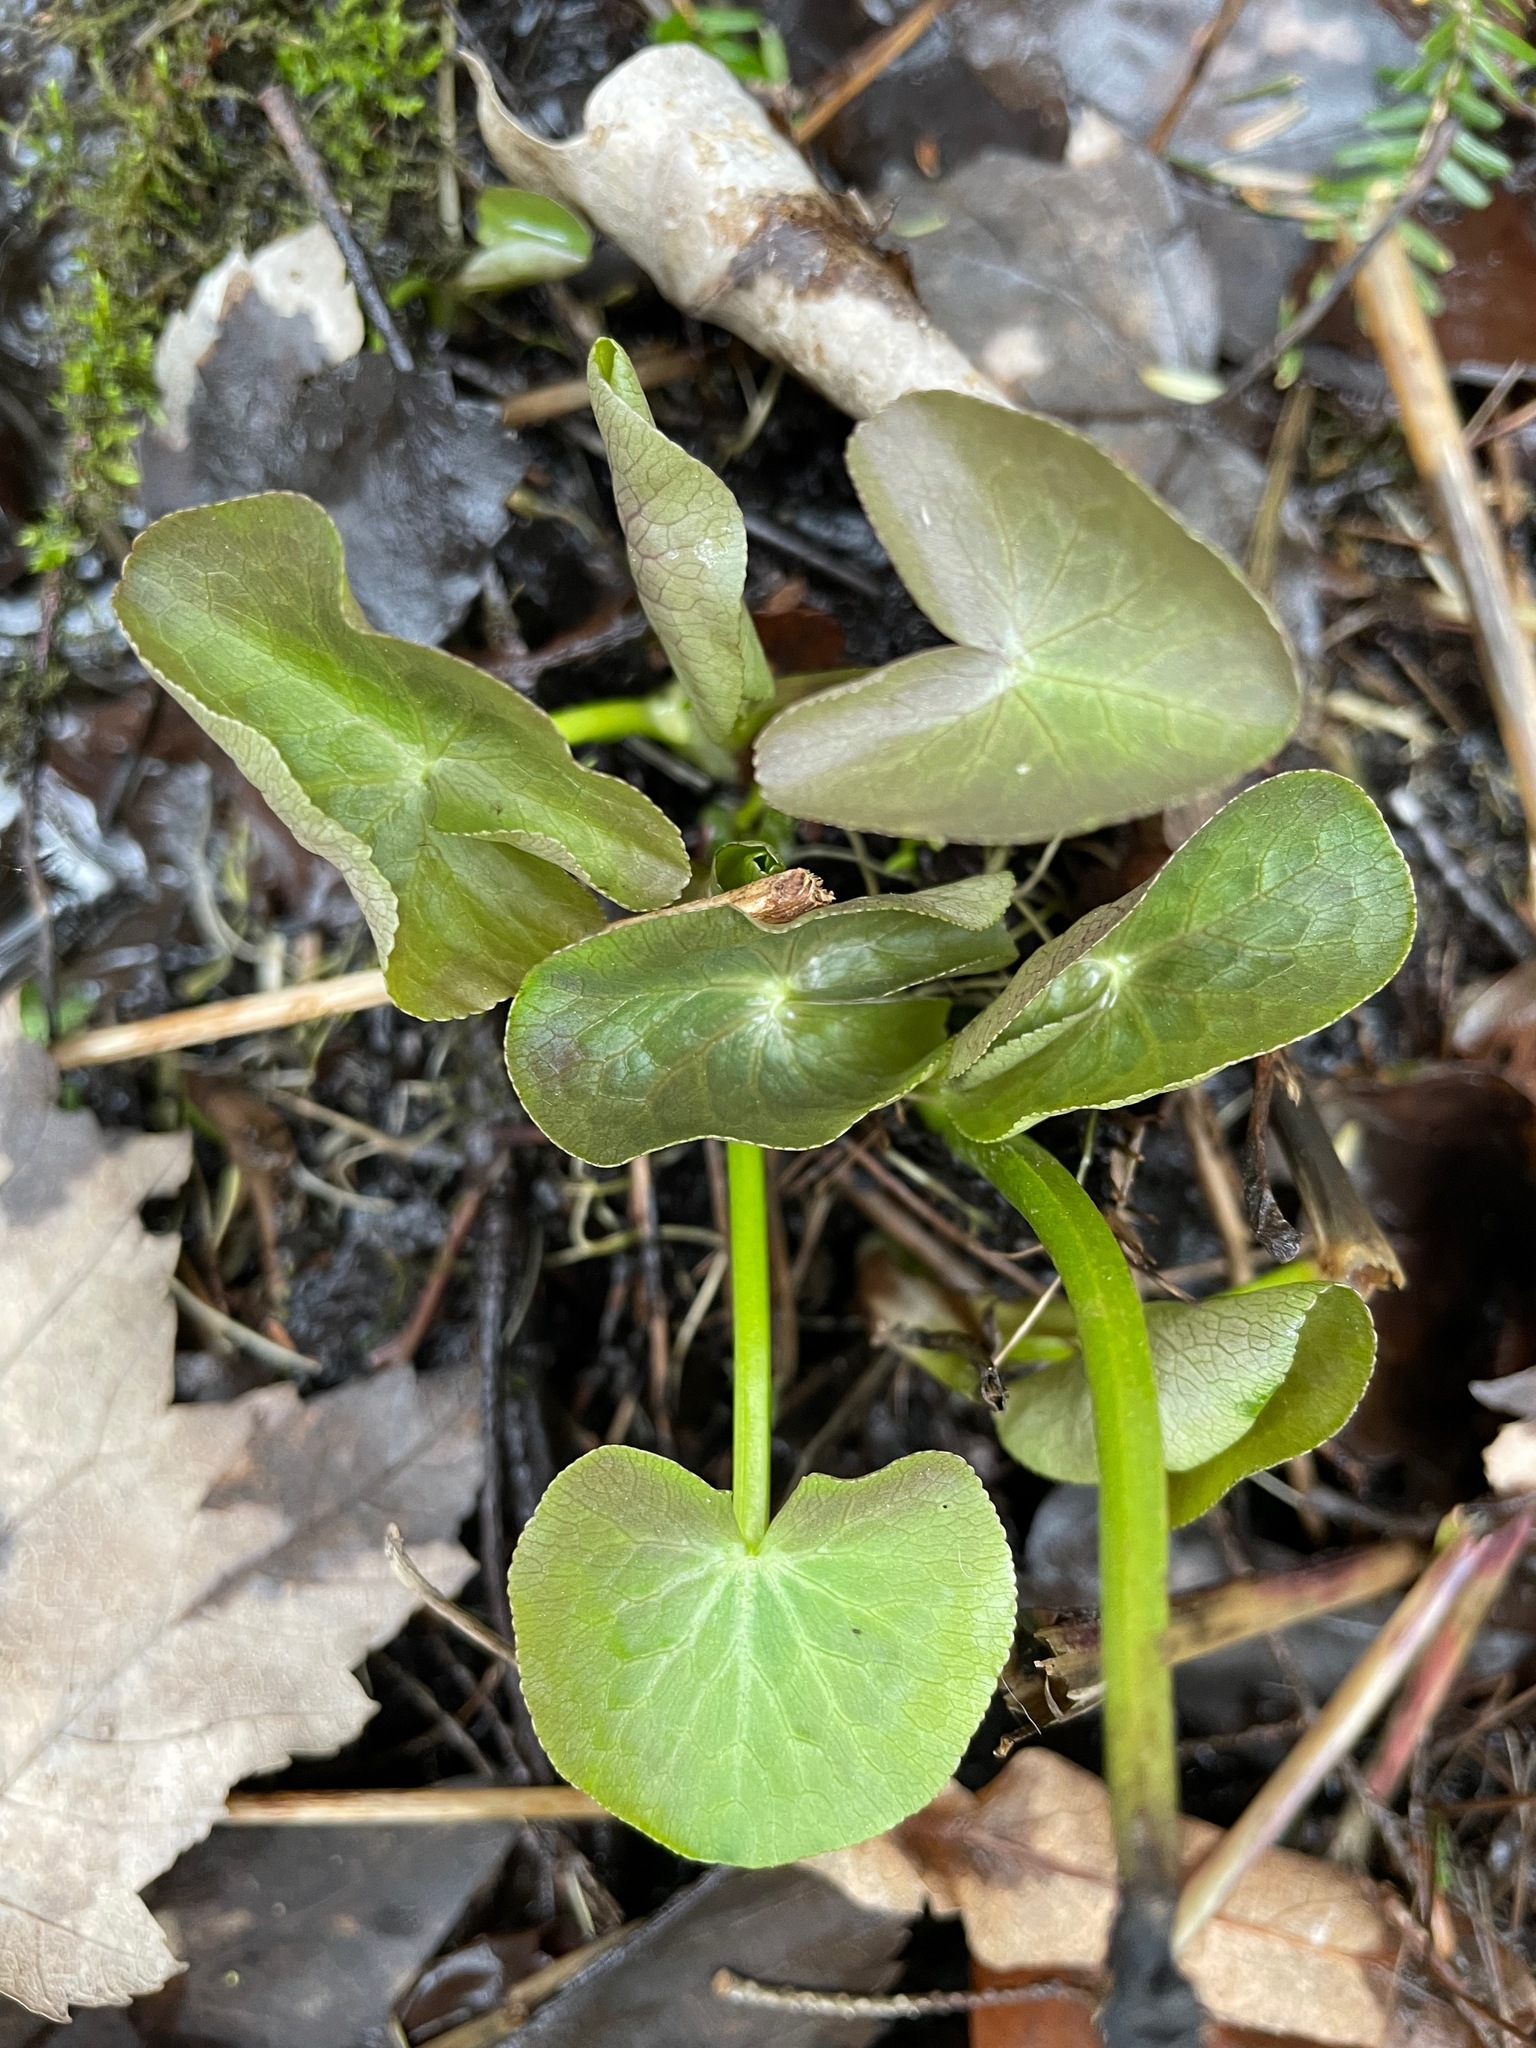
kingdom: Plantae
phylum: Tracheophyta
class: Magnoliopsida
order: Ranunculales
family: Ranunculaceae
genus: Caltha
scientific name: Caltha palustris
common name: Marsh marigold
